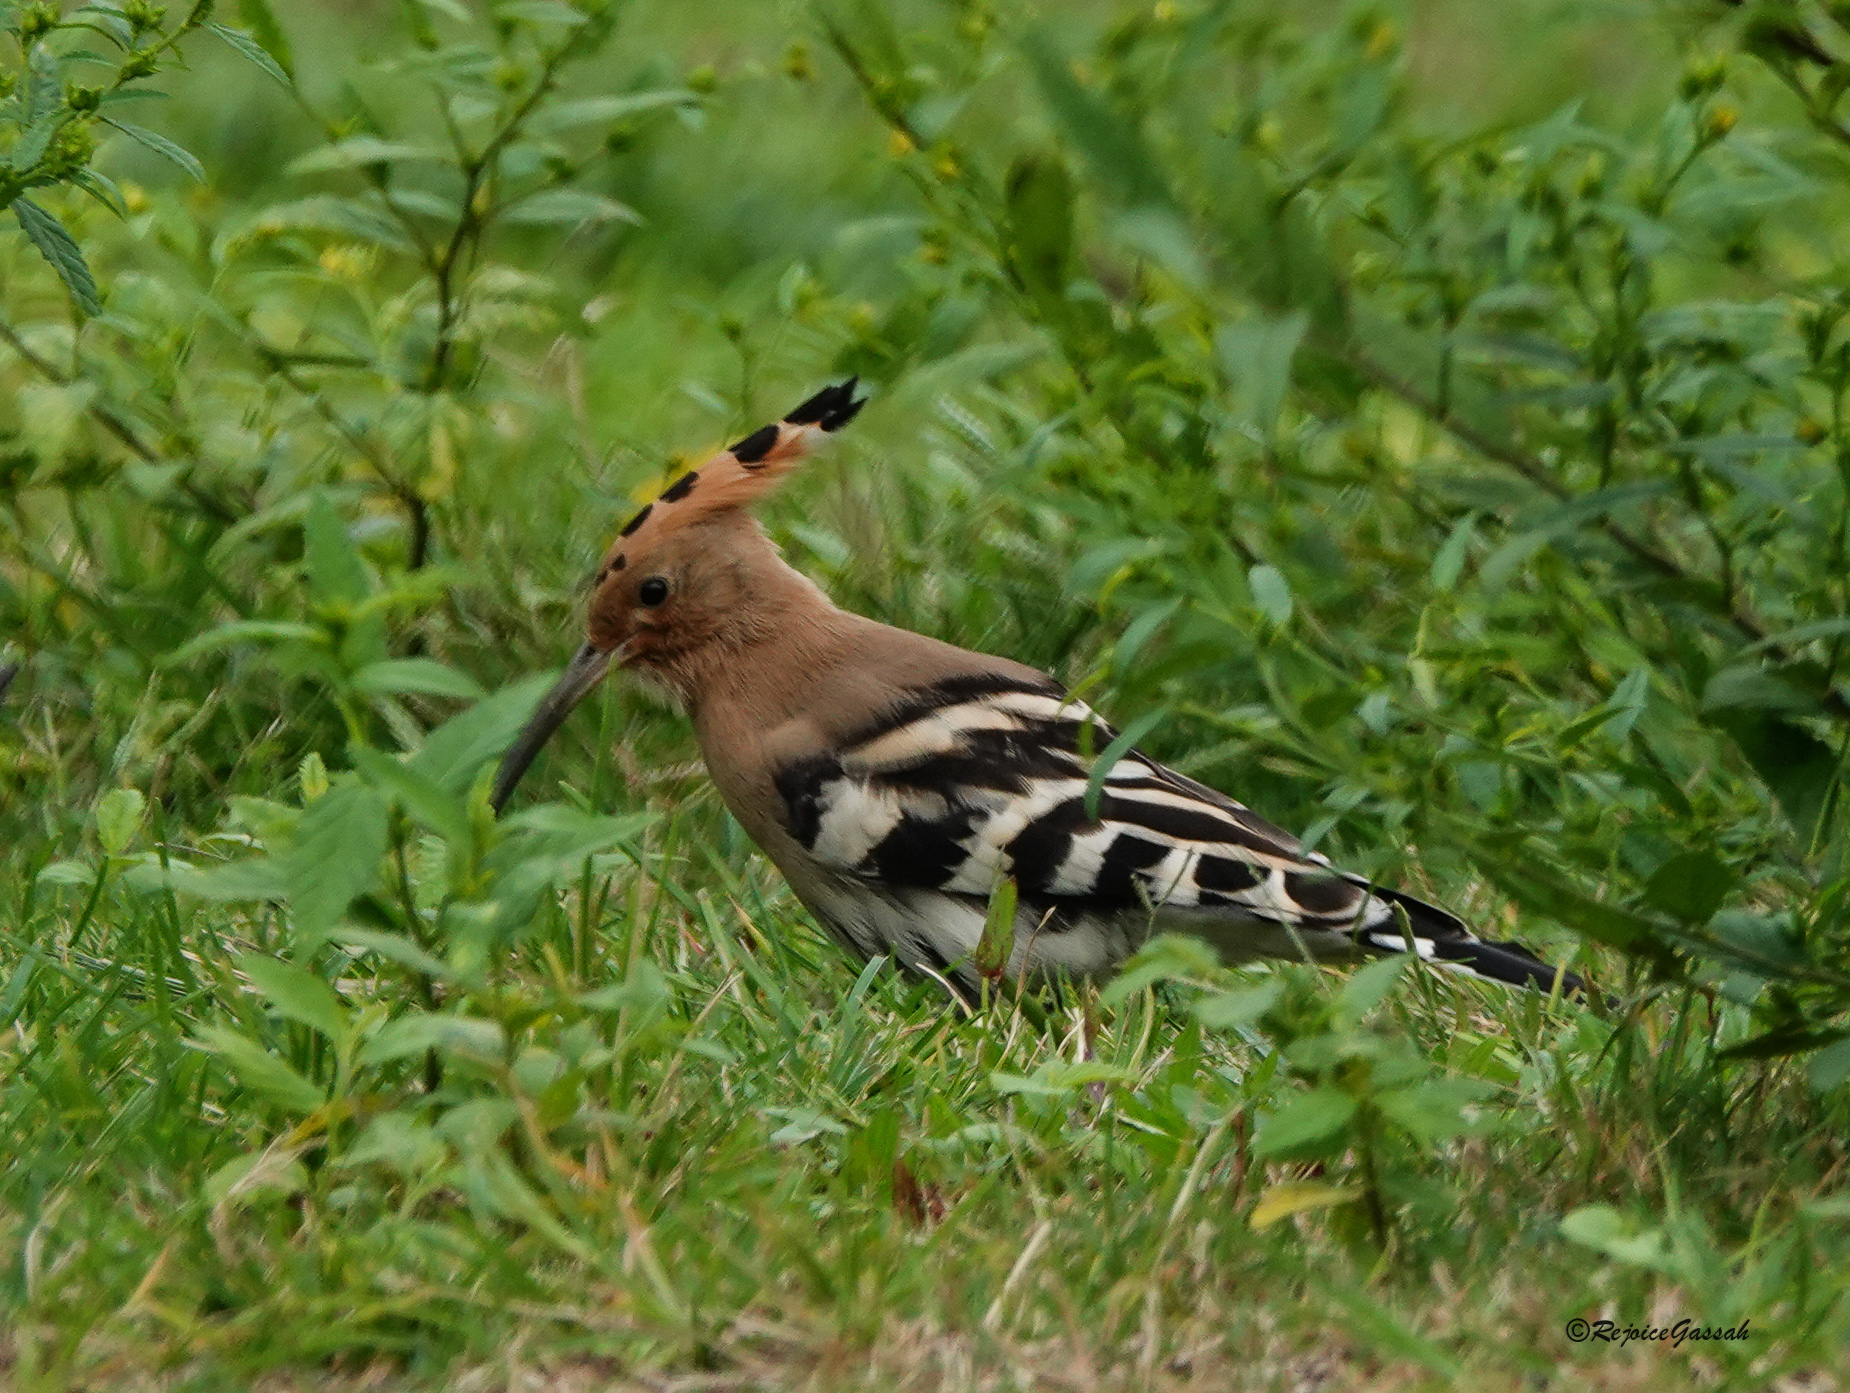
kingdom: Animalia
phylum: Chordata
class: Aves
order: Bucerotiformes
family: Upupidae
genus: Upupa
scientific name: Upupa epops
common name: Eurasian hoopoe
